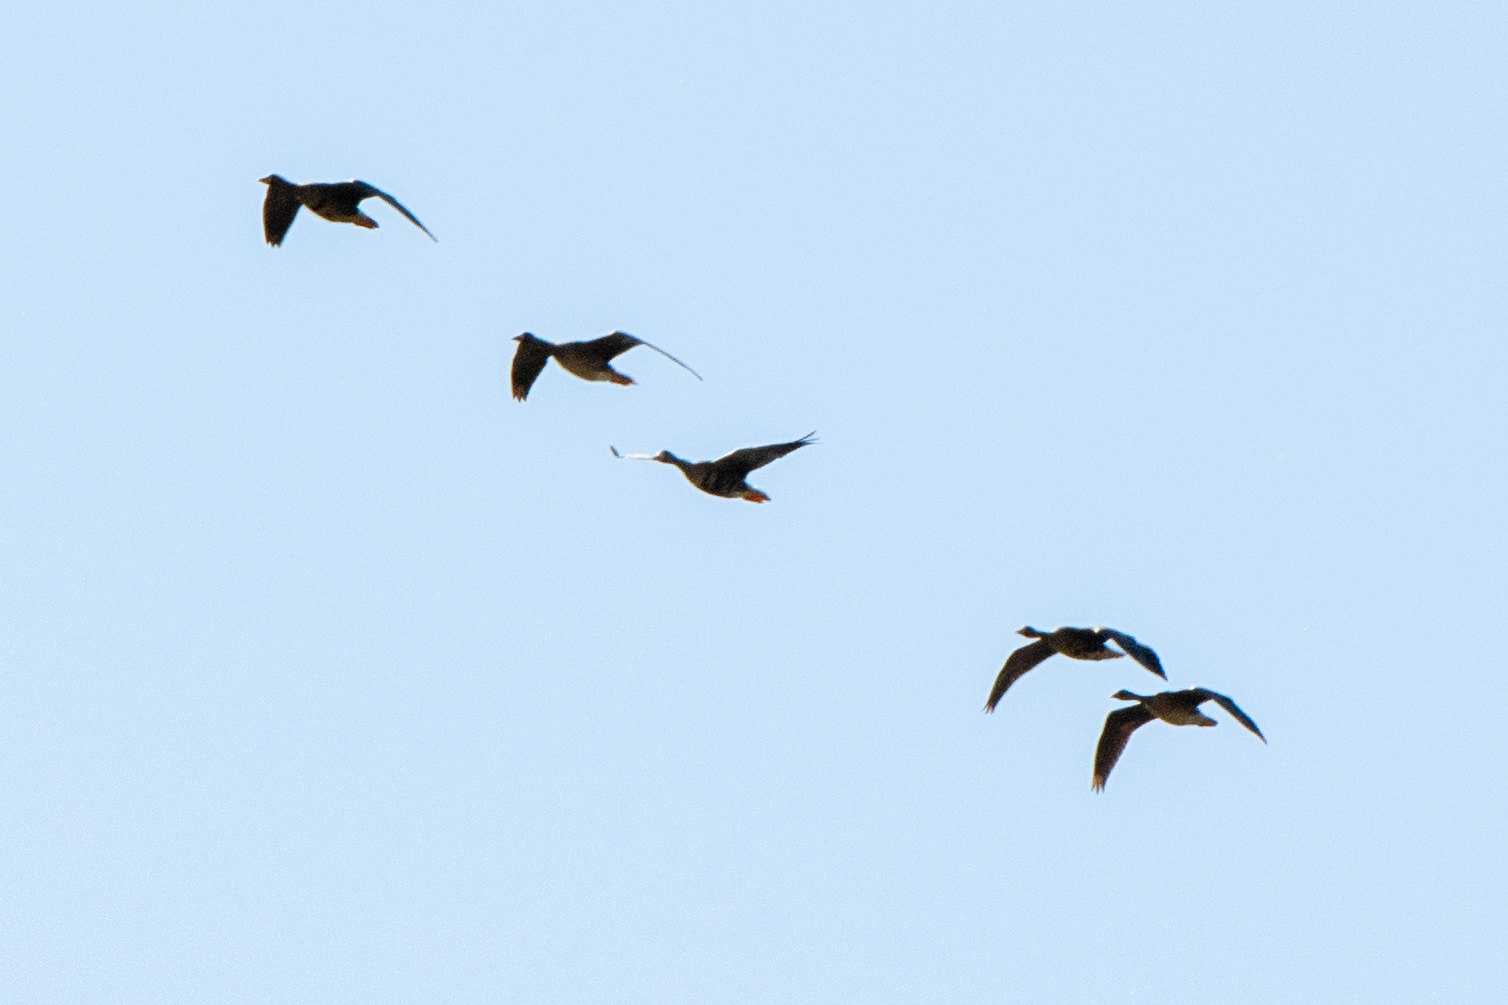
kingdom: Animalia
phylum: Chordata
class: Aves
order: Anseriformes
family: Anatidae
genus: Anser
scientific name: Anser albifrons
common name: Greater white-fronted goose
